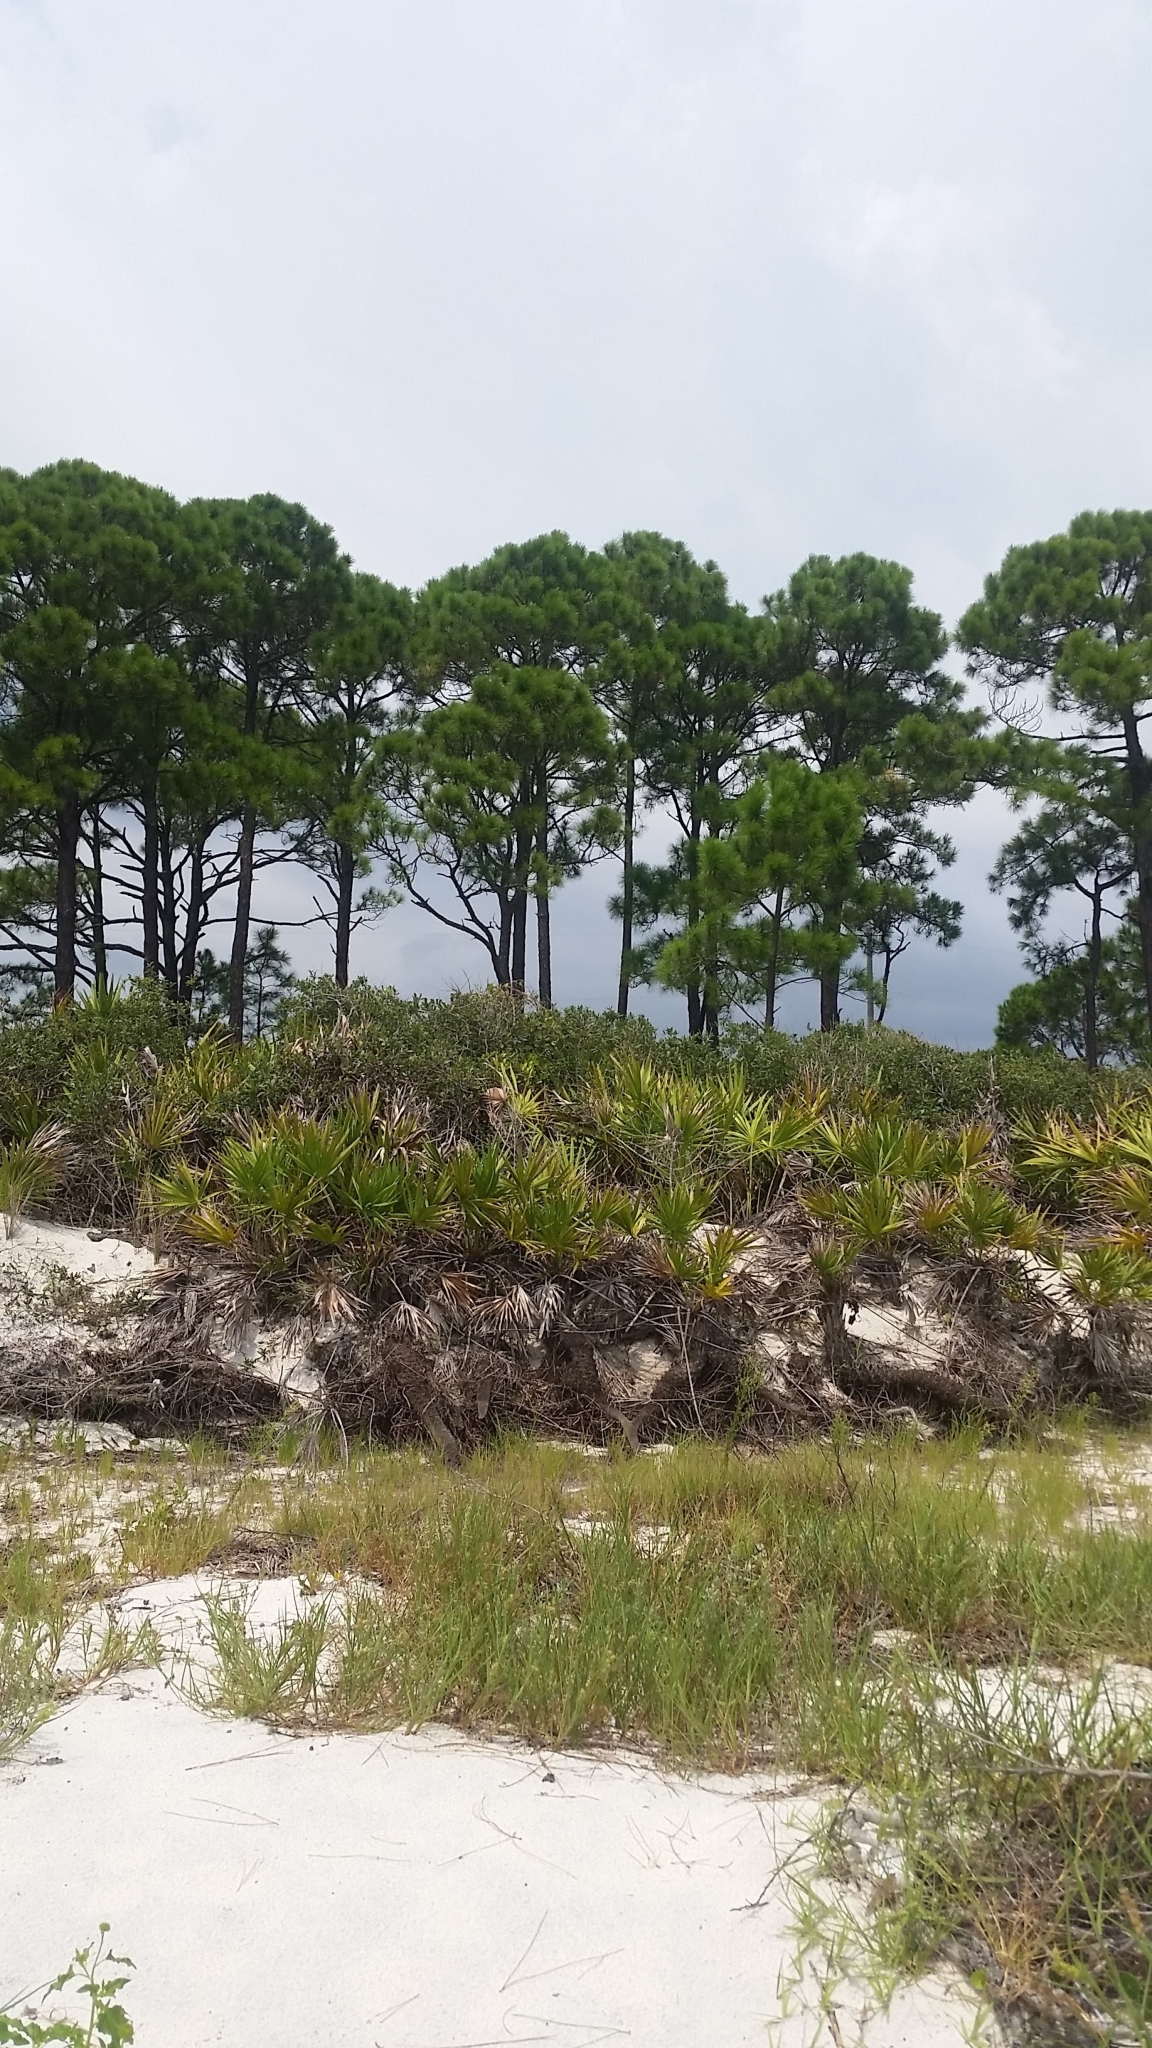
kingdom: Plantae
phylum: Tracheophyta
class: Liliopsida
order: Arecales
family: Arecaceae
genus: Serenoa
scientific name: Serenoa repens
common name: Saw-palmetto
